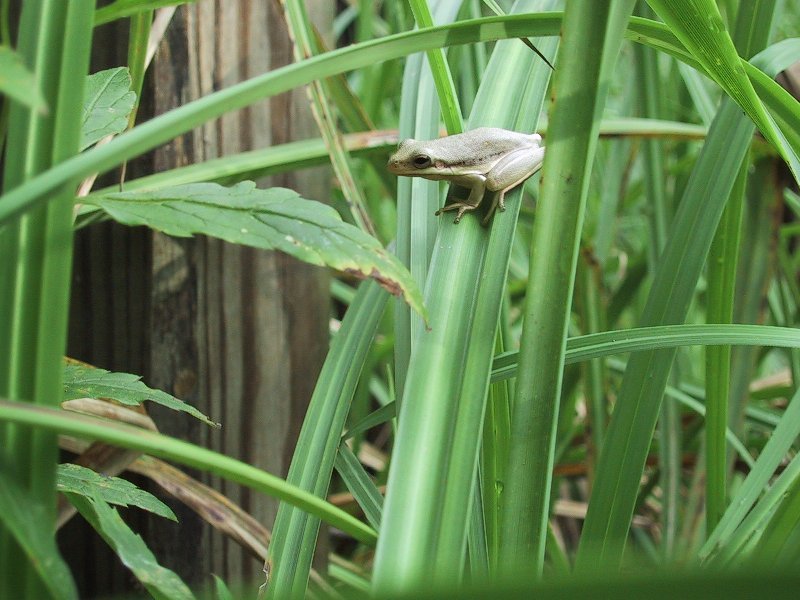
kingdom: Animalia
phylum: Chordata
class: Amphibia
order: Anura
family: Hylidae
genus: Dryophytes
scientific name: Dryophytes cinereus
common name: Green treefrog
